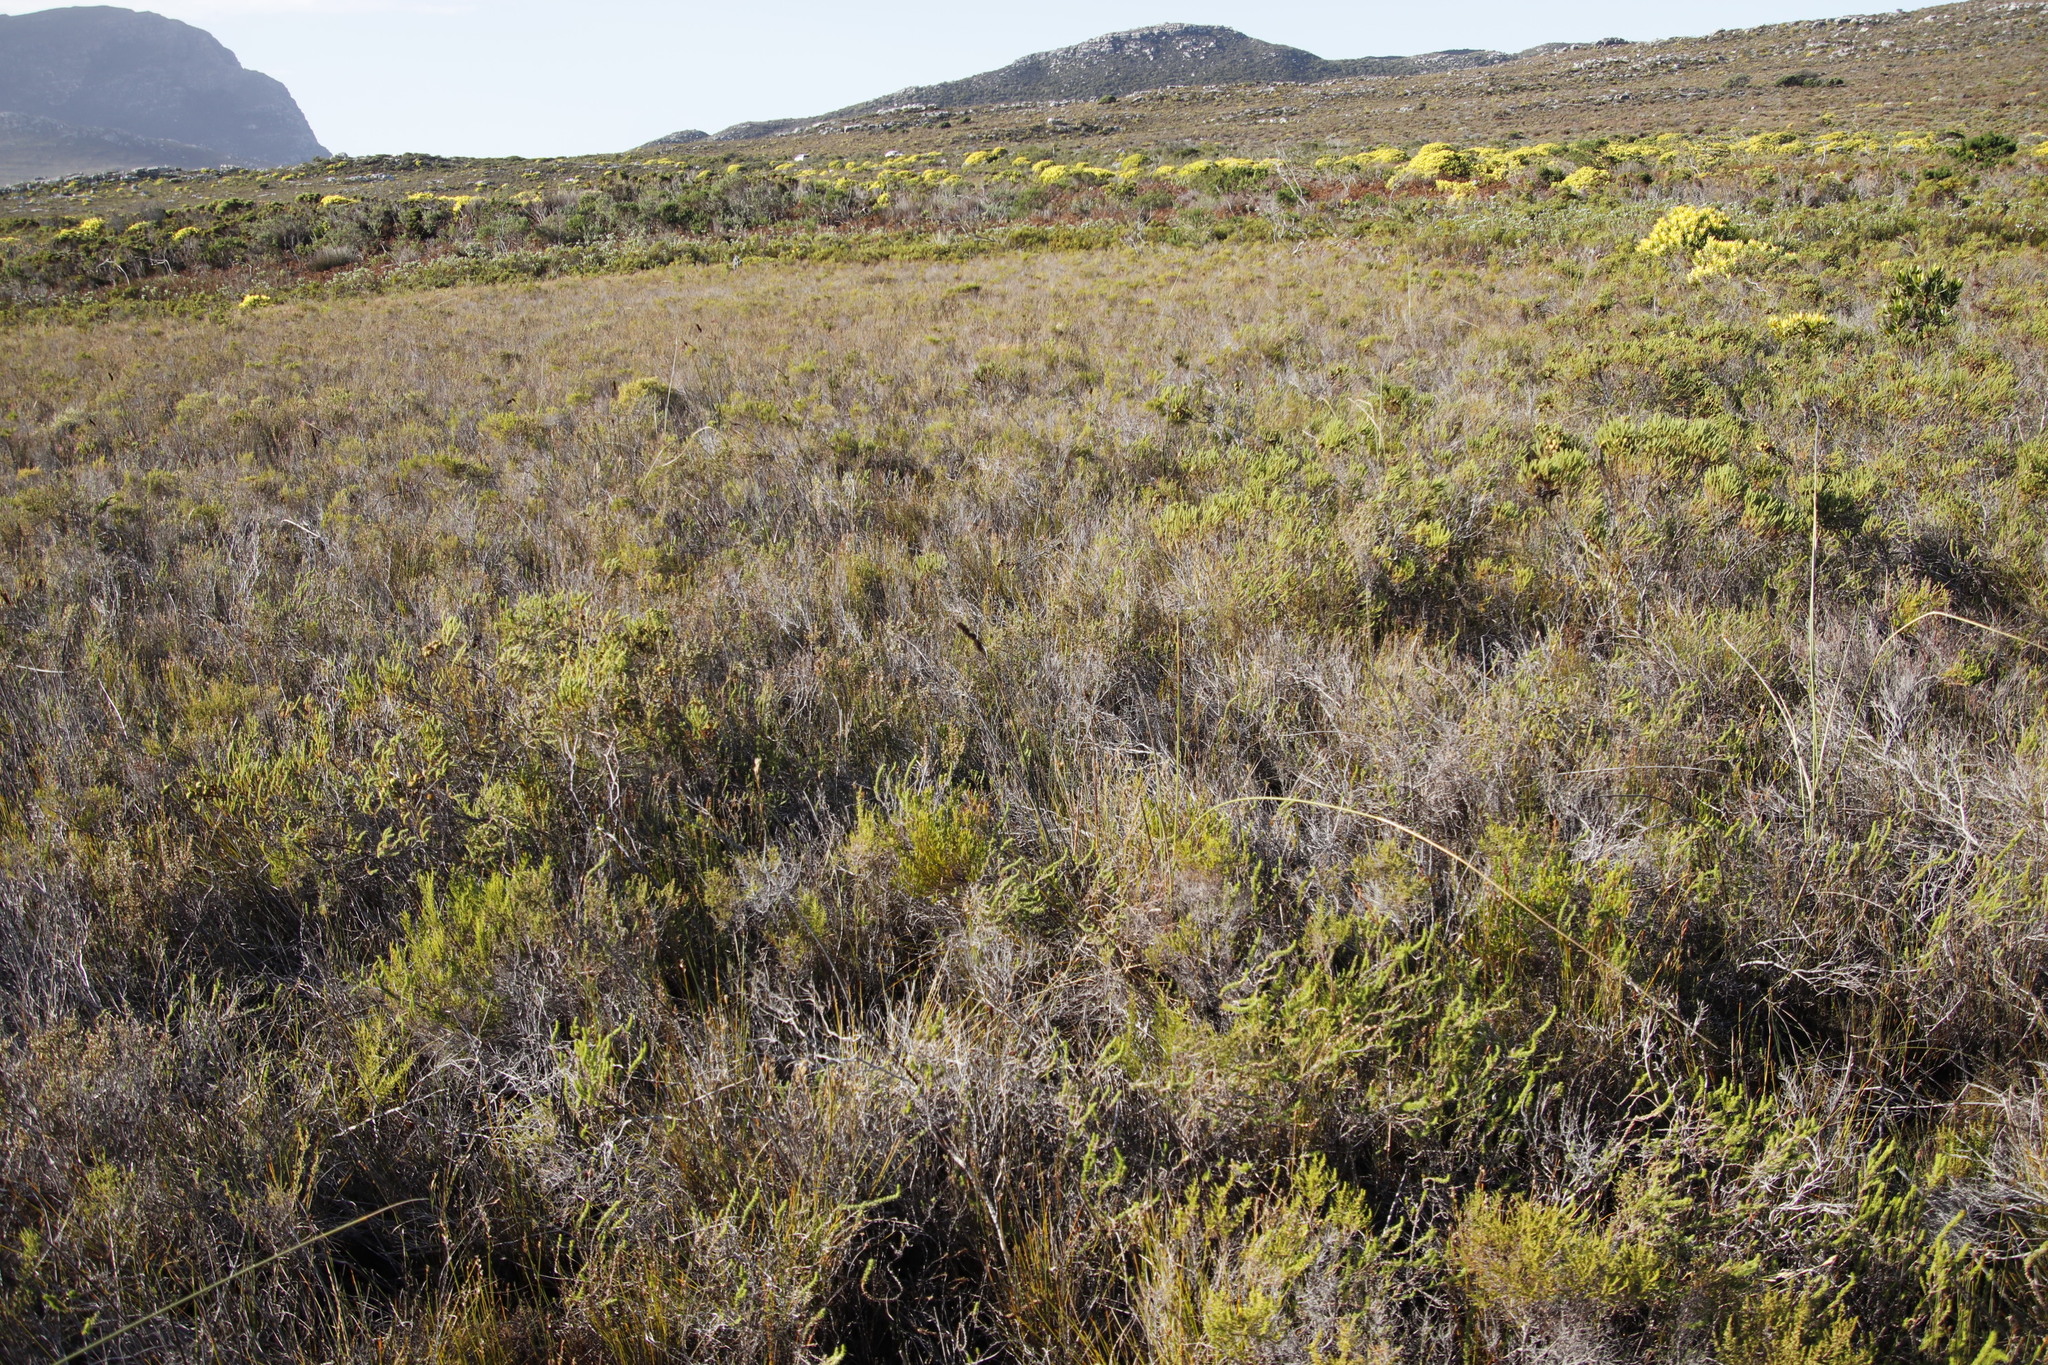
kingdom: Plantae
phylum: Tracheophyta
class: Magnoliopsida
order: Ericales
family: Ericaceae
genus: Erica
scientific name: Erica hispidula
